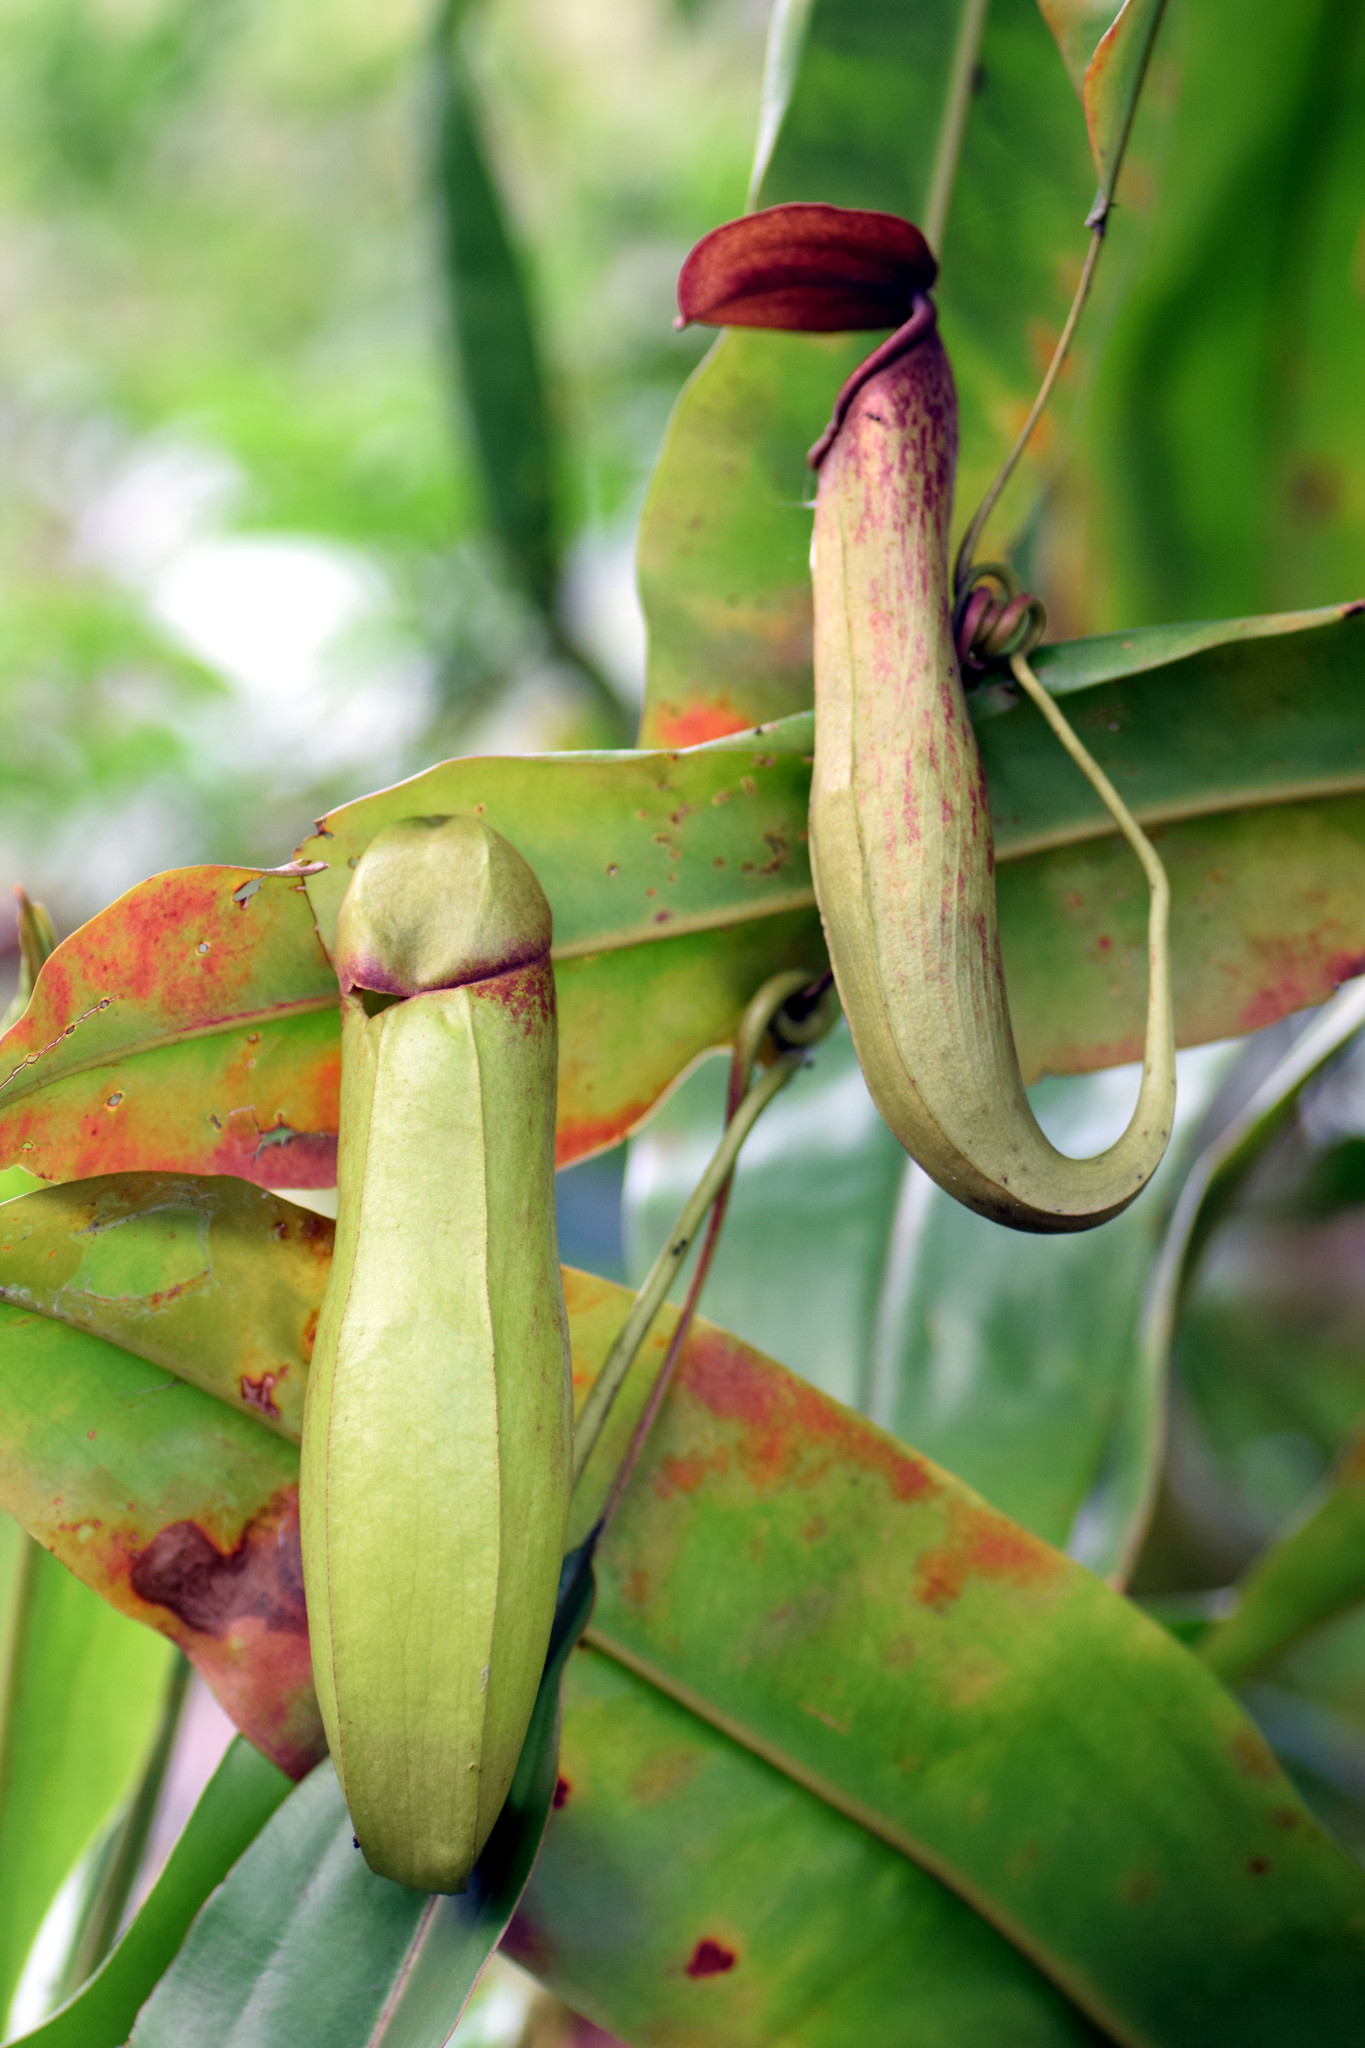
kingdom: Plantae
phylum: Tracheophyta
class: Magnoliopsida
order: Caryophyllales
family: Nepenthaceae
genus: Nepenthes
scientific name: Nepenthes khasiana
